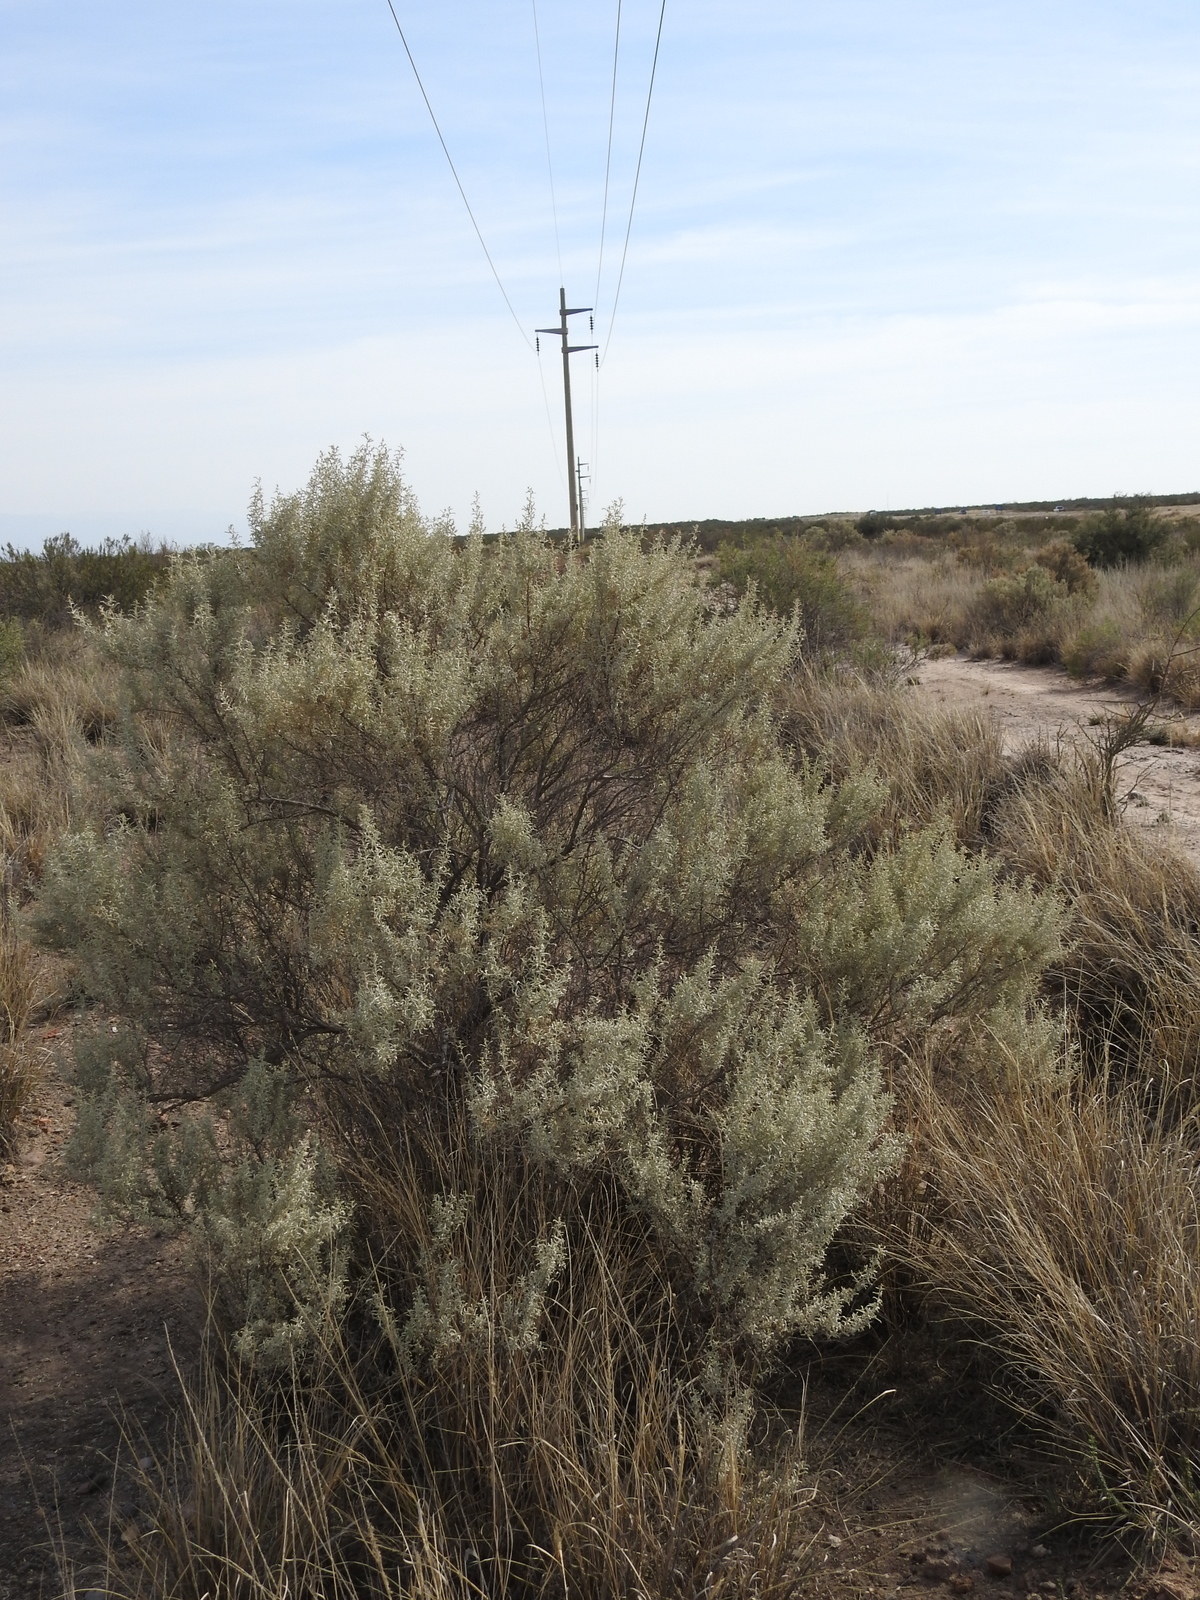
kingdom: Plantae
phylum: Tracheophyta
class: Magnoliopsida
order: Caryophyllales
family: Amaranthaceae
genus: Atriplex
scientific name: Atriplex lampa
